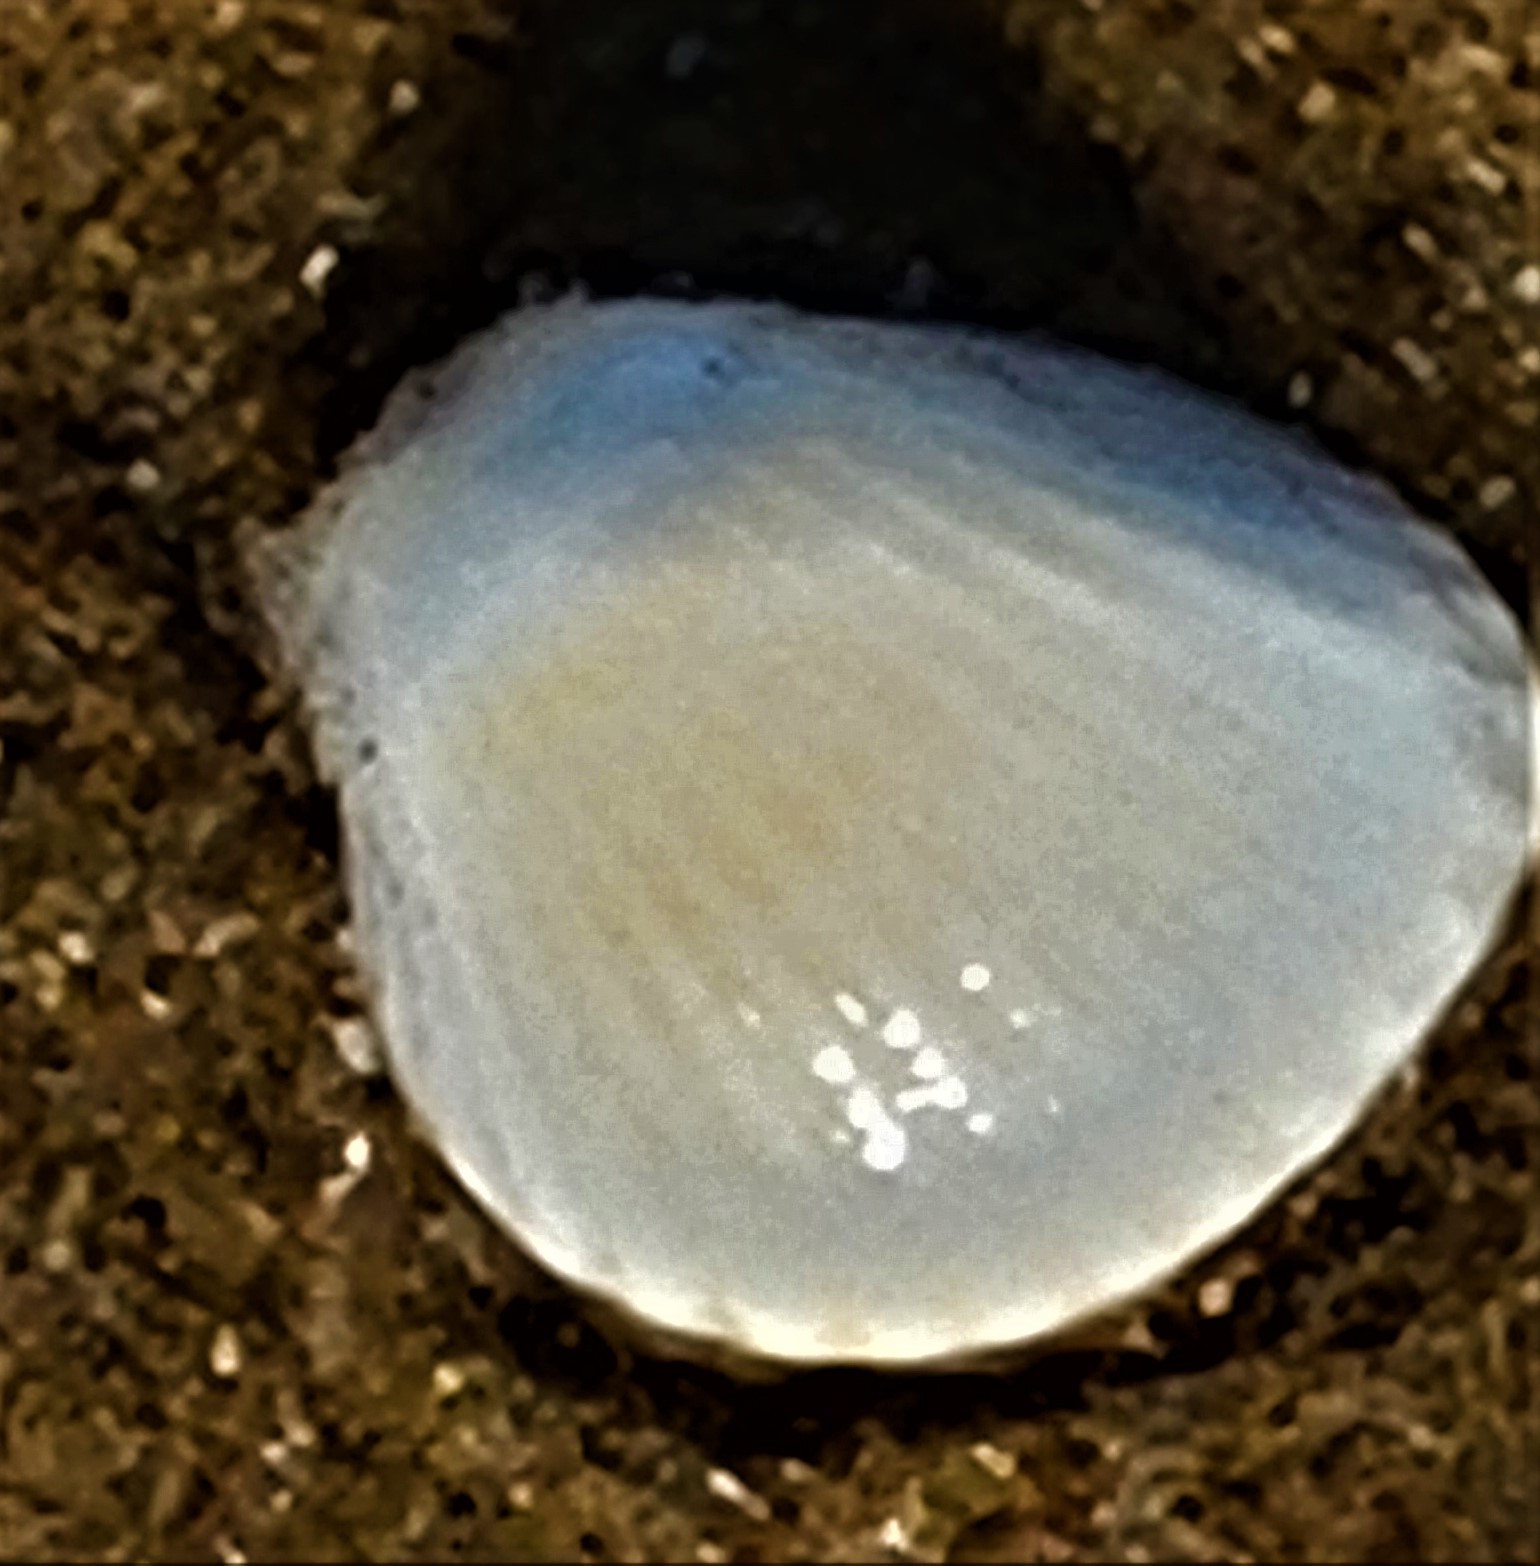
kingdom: Animalia
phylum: Mollusca
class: Bivalvia
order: Arcida
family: Arcidae
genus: Anadara
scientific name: Anadara chemnitzii
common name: Chemnitz's triangular ark
